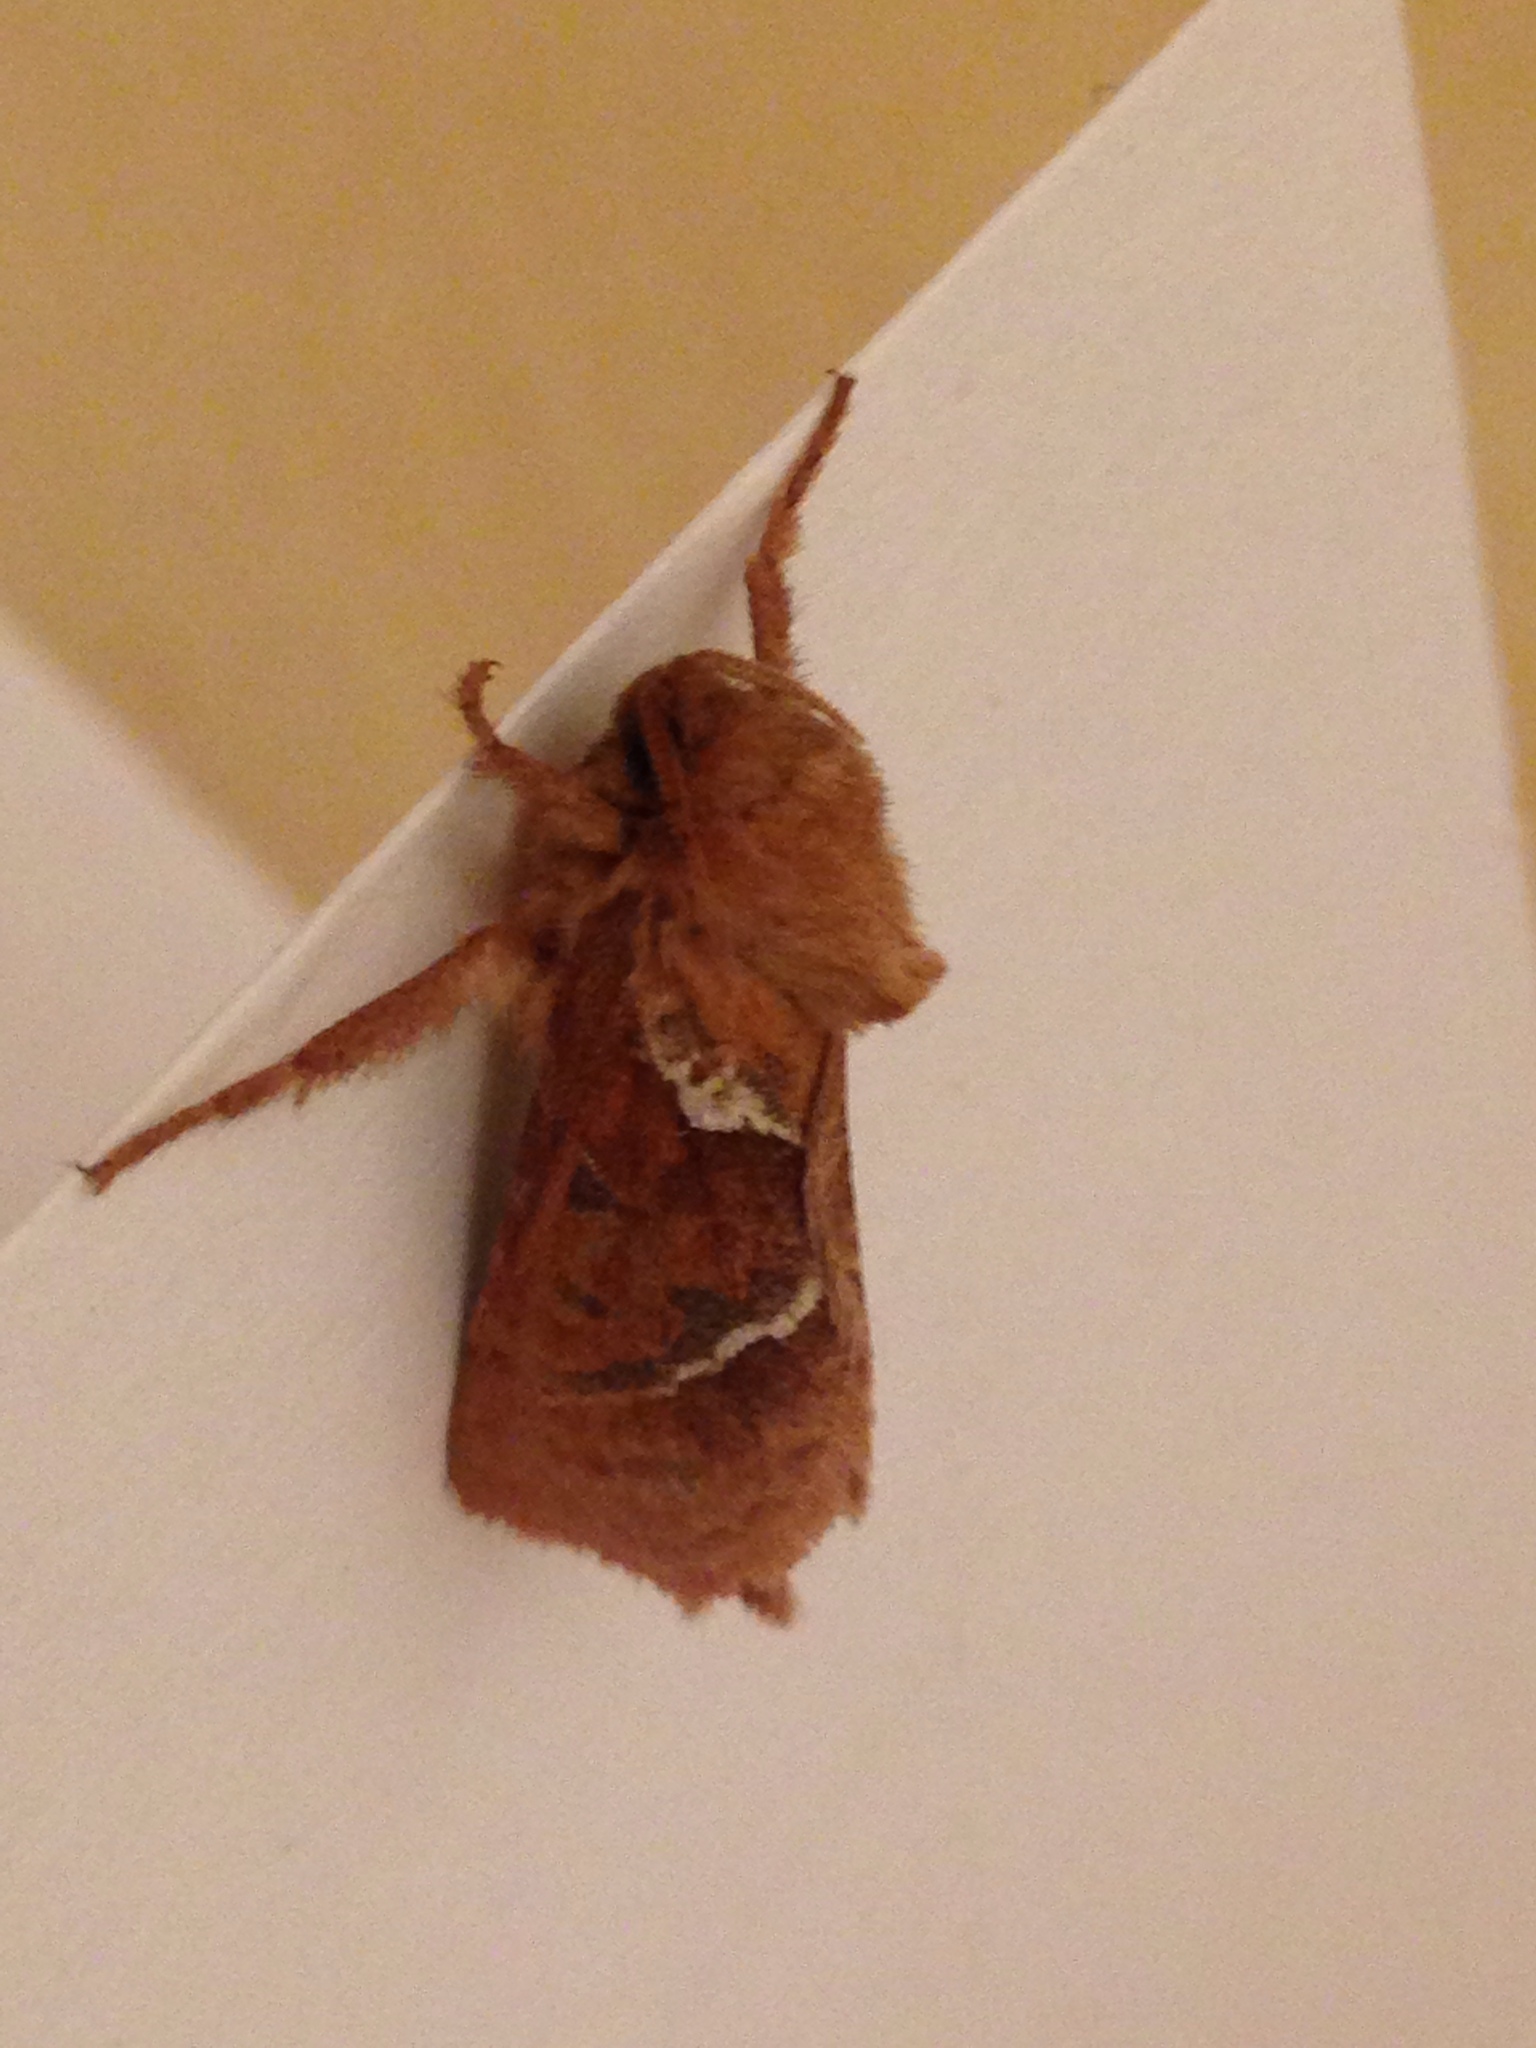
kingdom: Animalia
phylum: Arthropoda
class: Insecta
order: Lepidoptera
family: Hepialidae
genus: Triodia
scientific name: Triodia sylvina
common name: Orange swift
